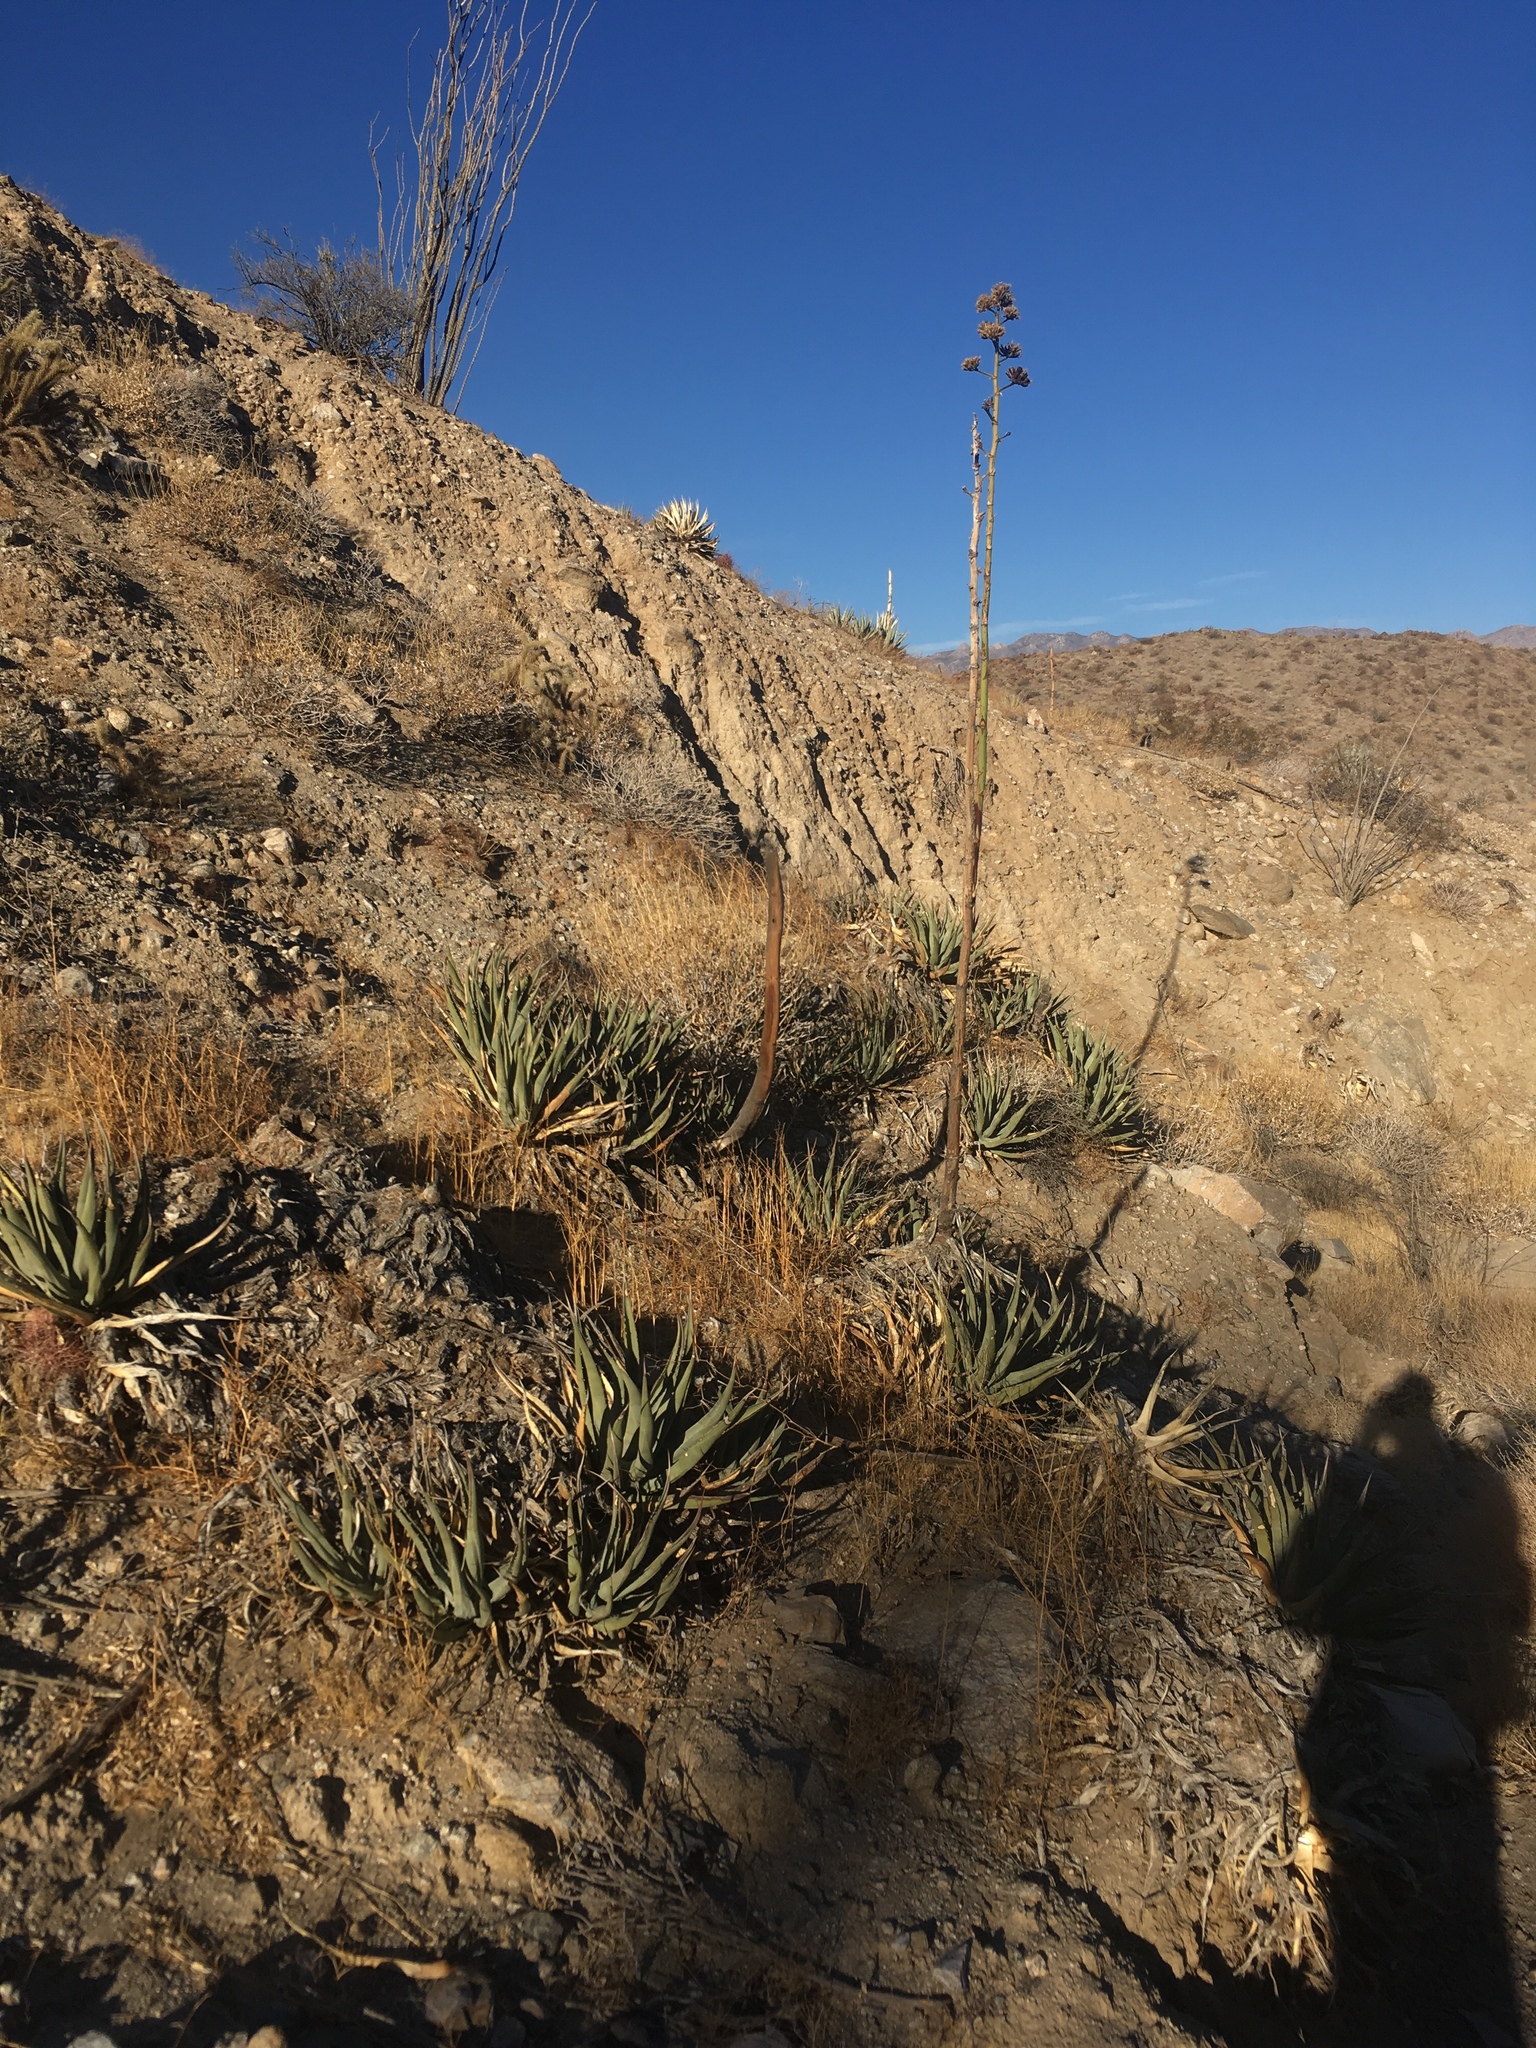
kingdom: Plantae
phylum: Tracheophyta
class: Liliopsida
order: Asparagales
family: Asparagaceae
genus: Agave
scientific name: Agave deserti
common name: Desert agave
